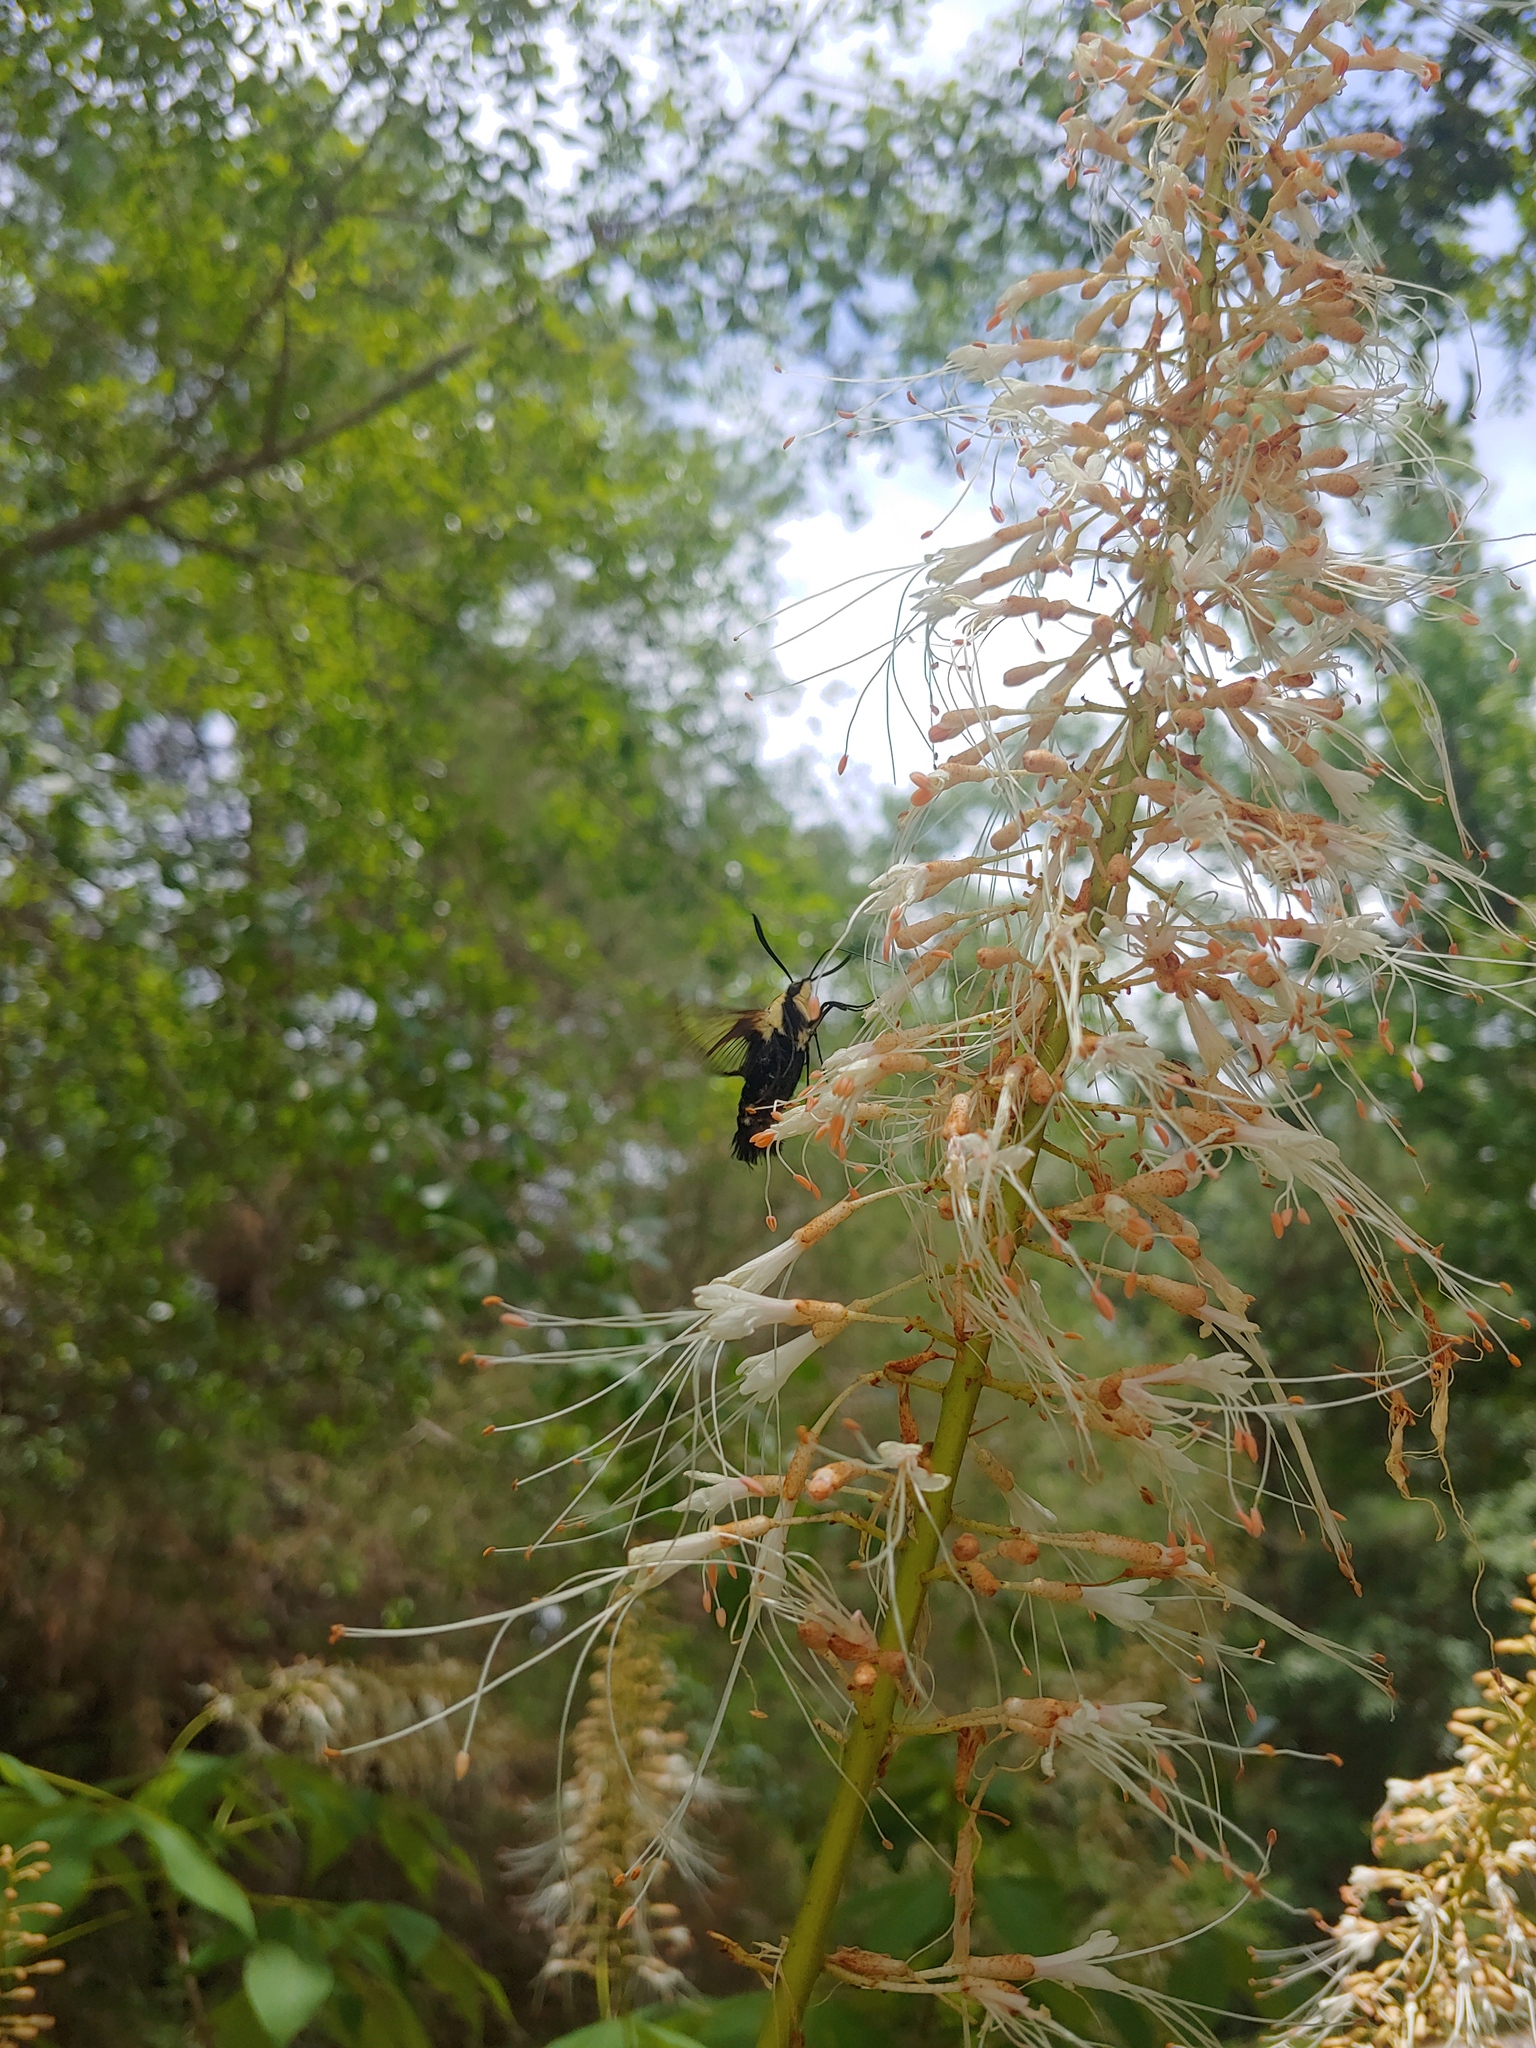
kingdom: Animalia
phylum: Arthropoda
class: Insecta
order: Lepidoptera
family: Sphingidae
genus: Hemaris
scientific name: Hemaris diffinis
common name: Bumblebee moth
